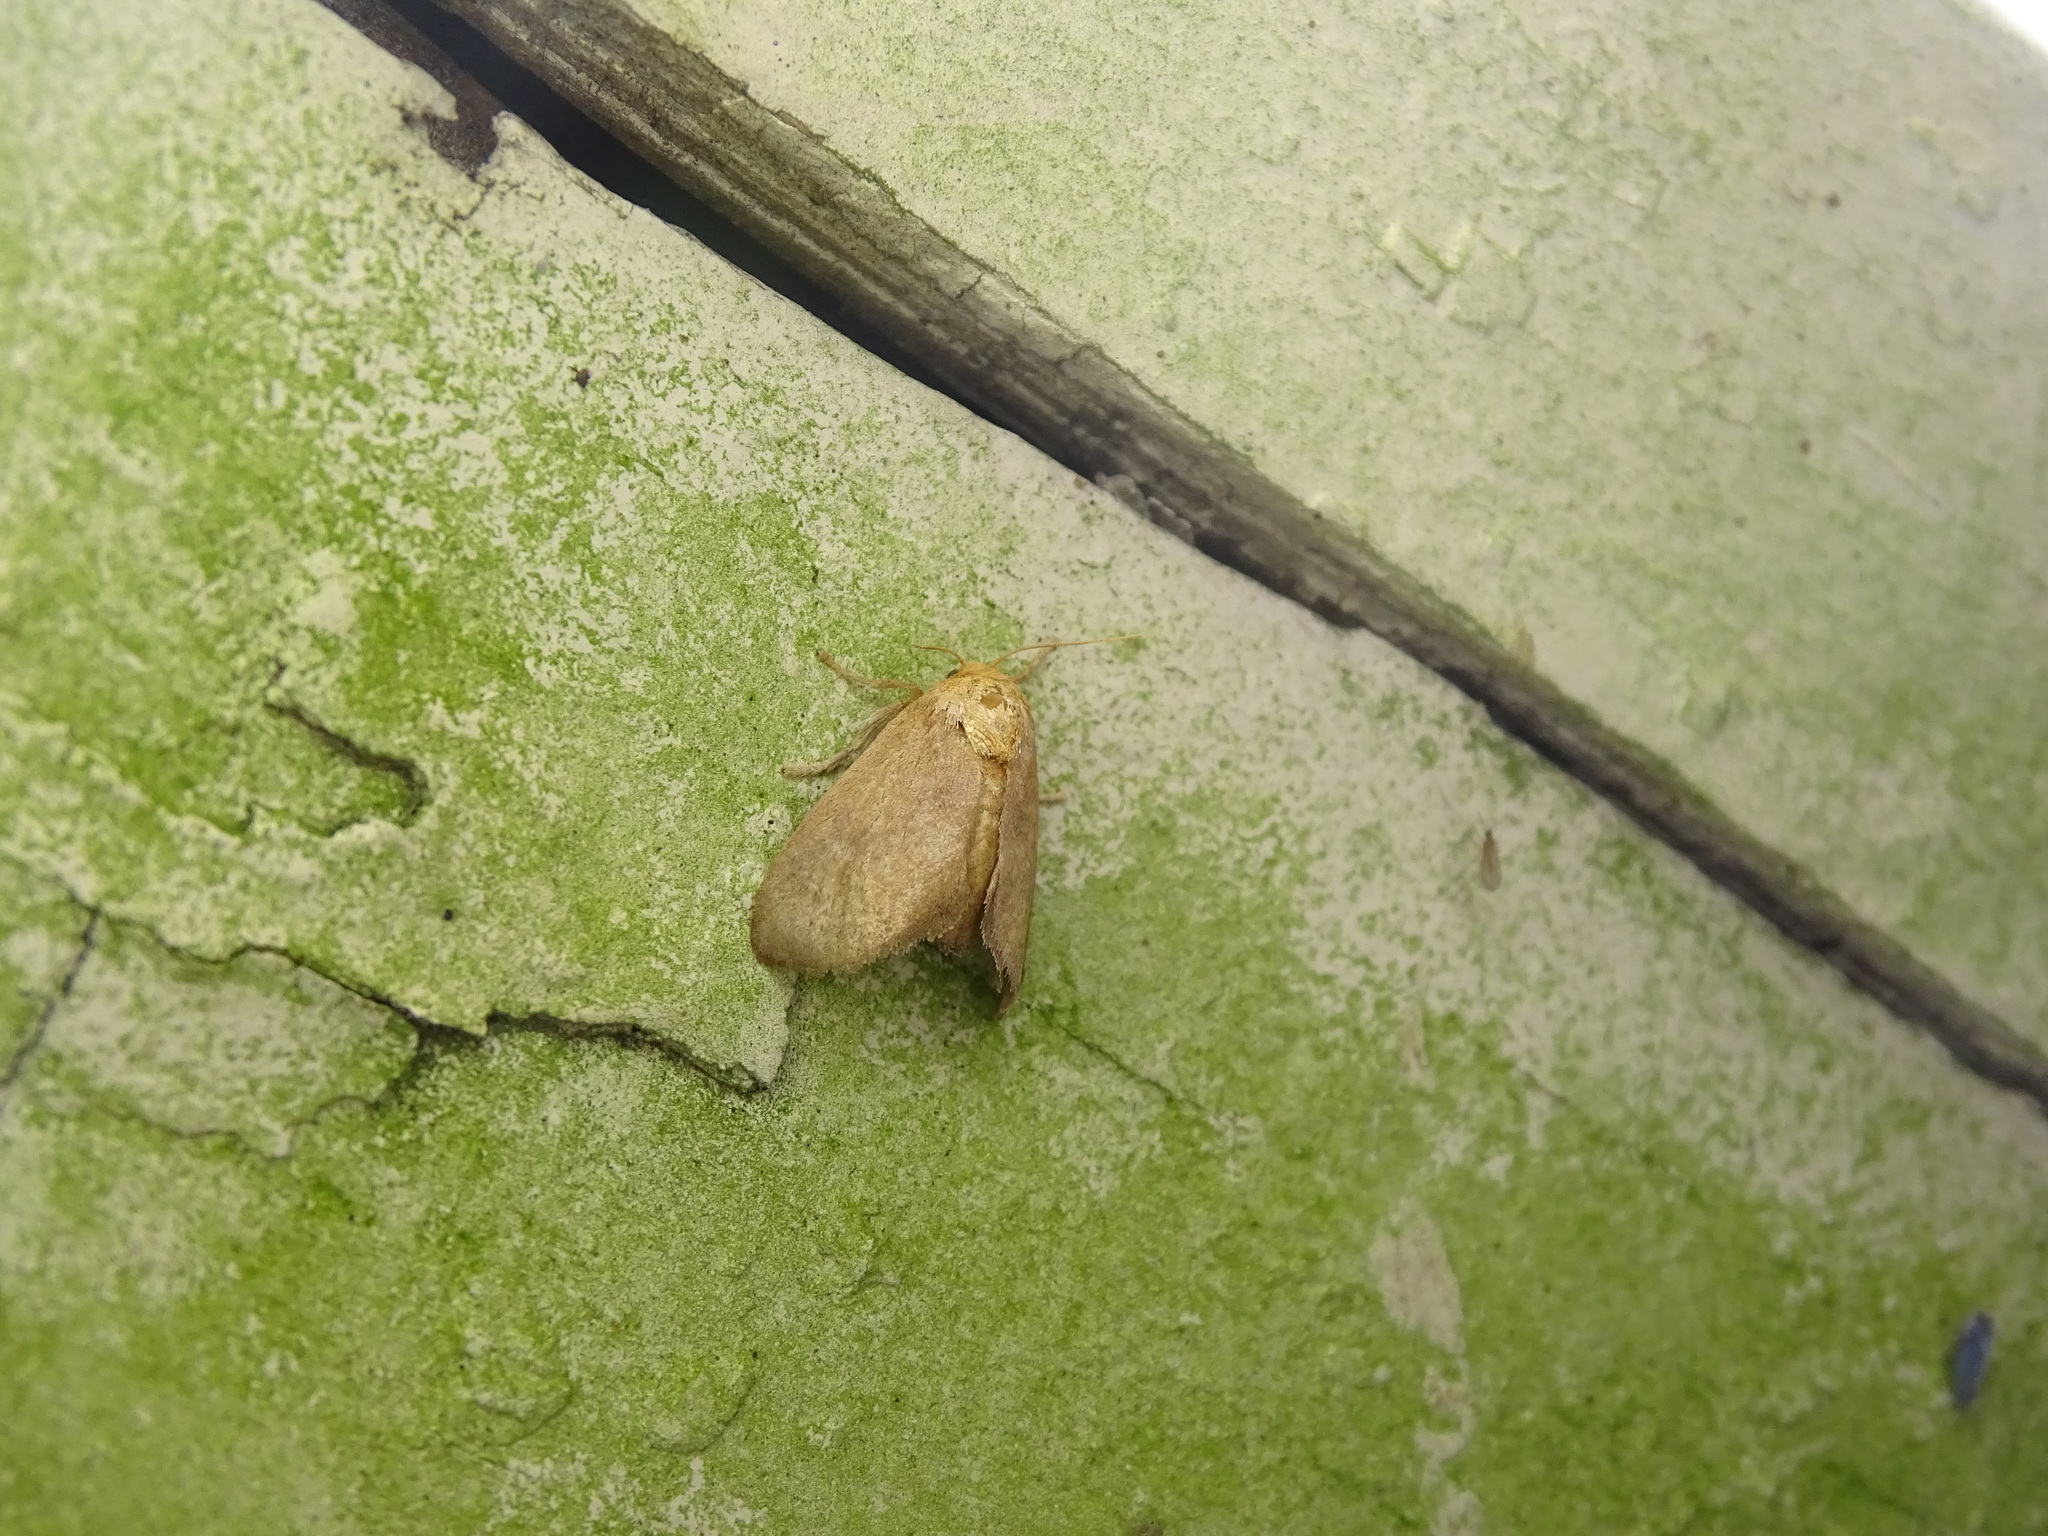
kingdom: Animalia
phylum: Arthropoda
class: Insecta
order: Lepidoptera
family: Limacodidae
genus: Isa
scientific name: Isa textula
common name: Crowned slug moth
